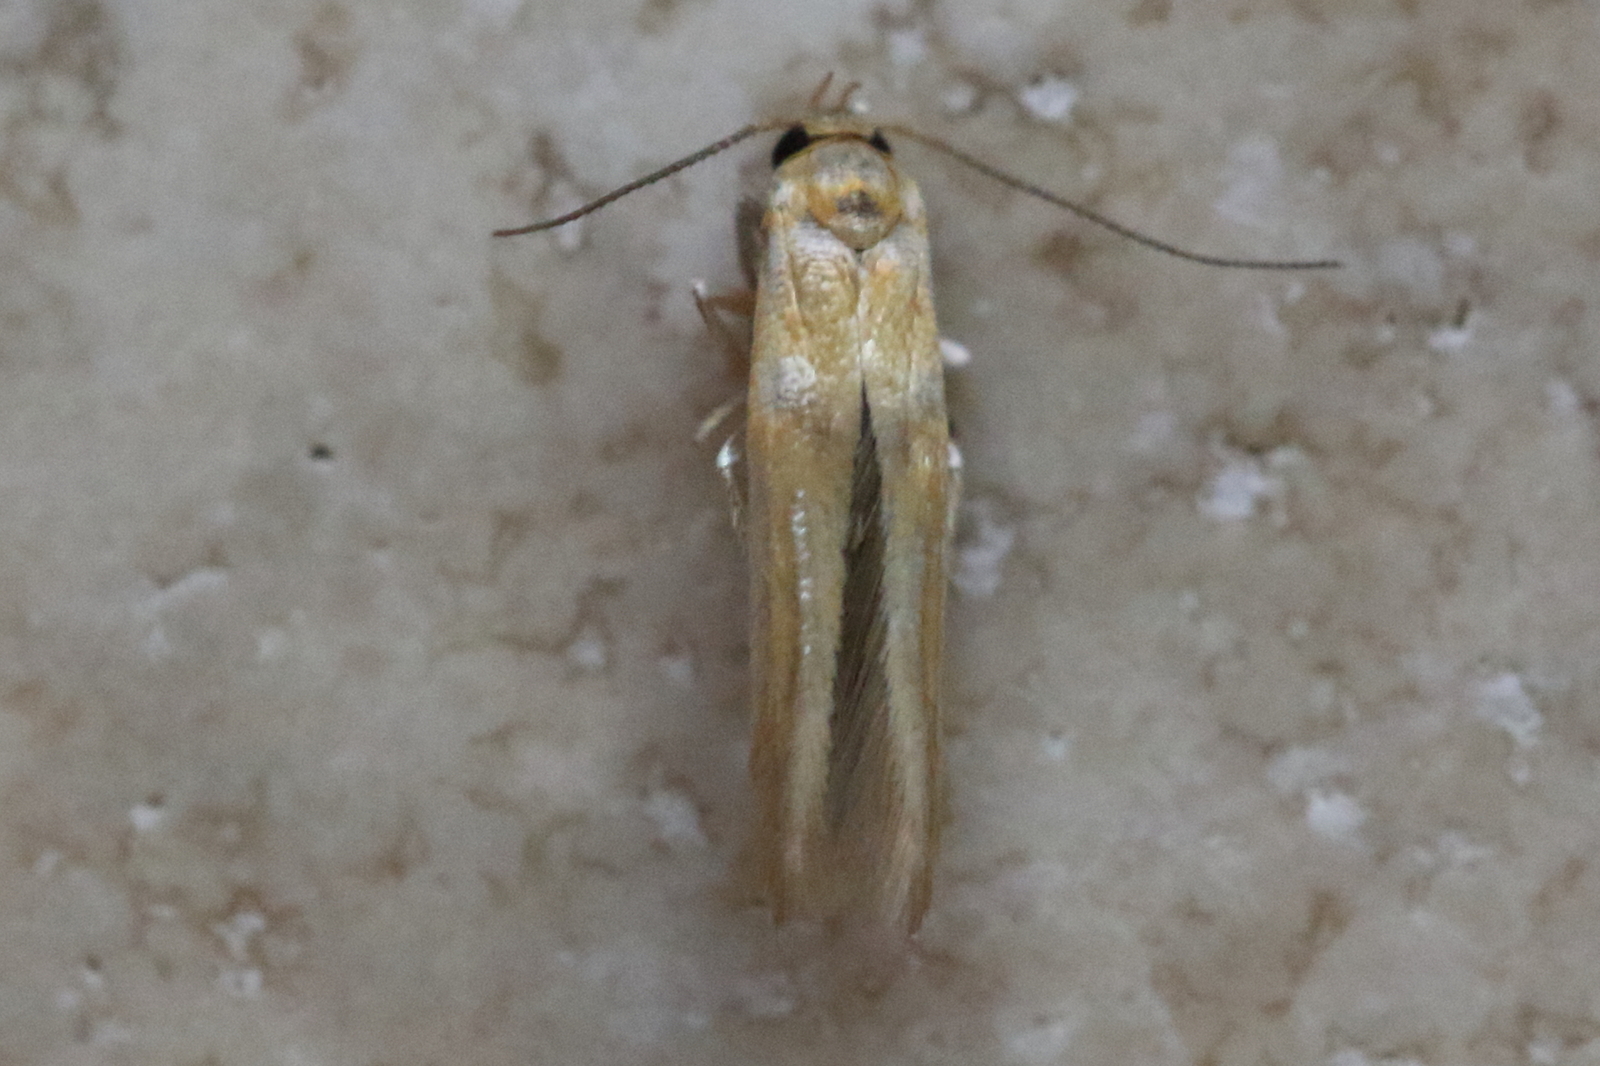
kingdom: Animalia
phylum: Arthropoda
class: Insecta
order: Lepidoptera
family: Stathmopodidae
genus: Stathmopoda
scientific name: Stathmopoda hyposcia
